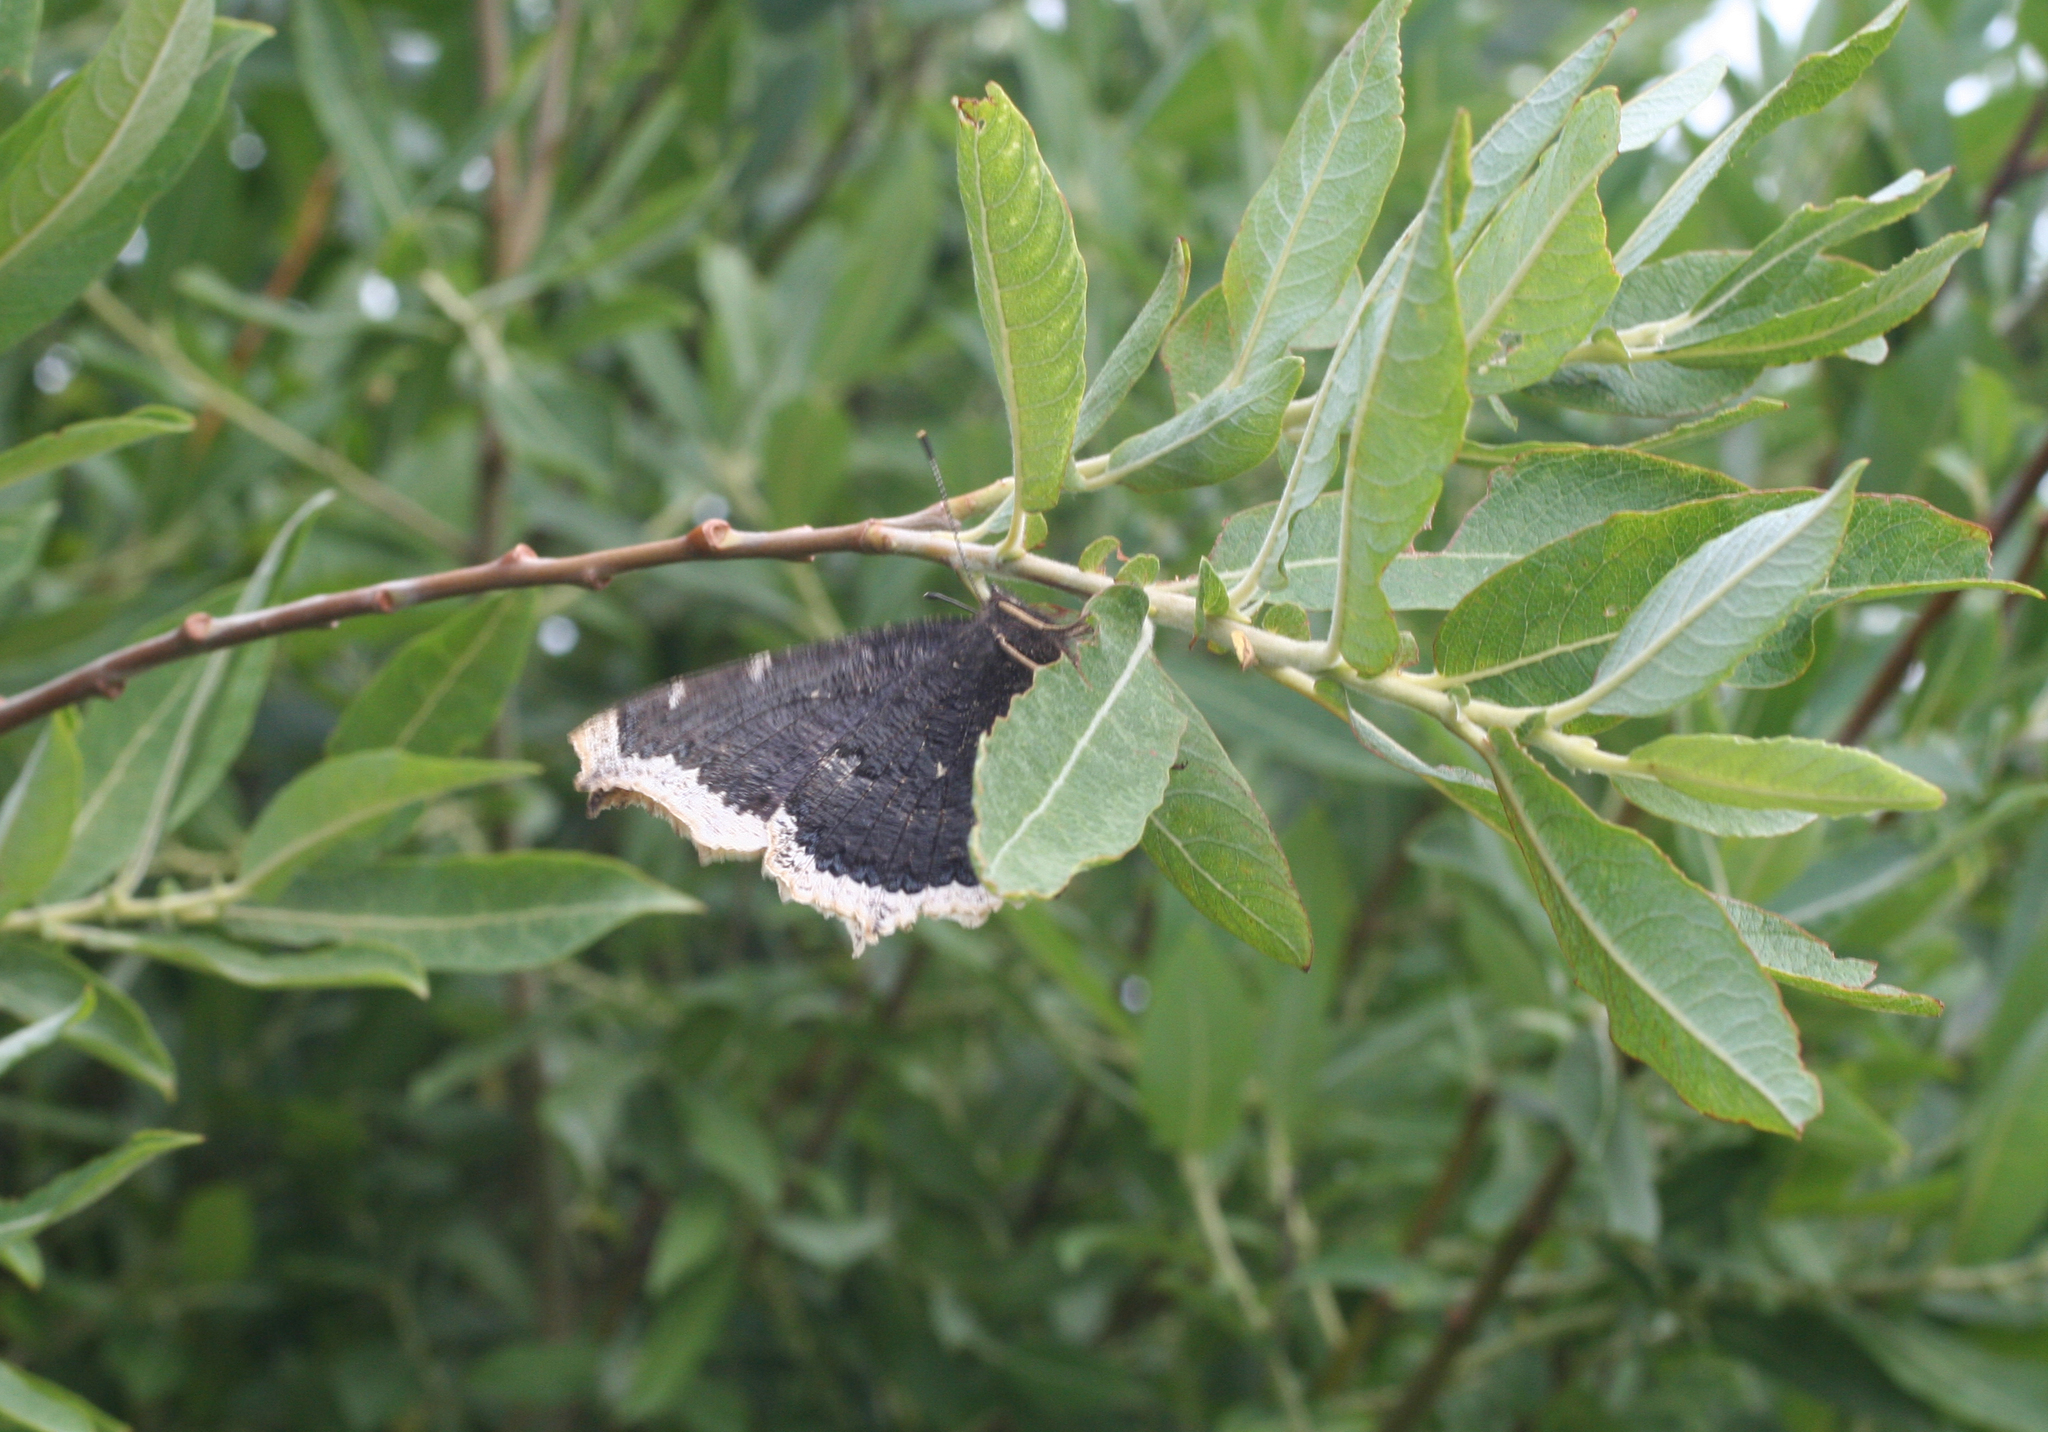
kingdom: Animalia
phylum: Arthropoda
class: Insecta
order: Lepidoptera
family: Nymphalidae
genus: Nymphalis
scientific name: Nymphalis antiopa
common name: Camberwell beauty
